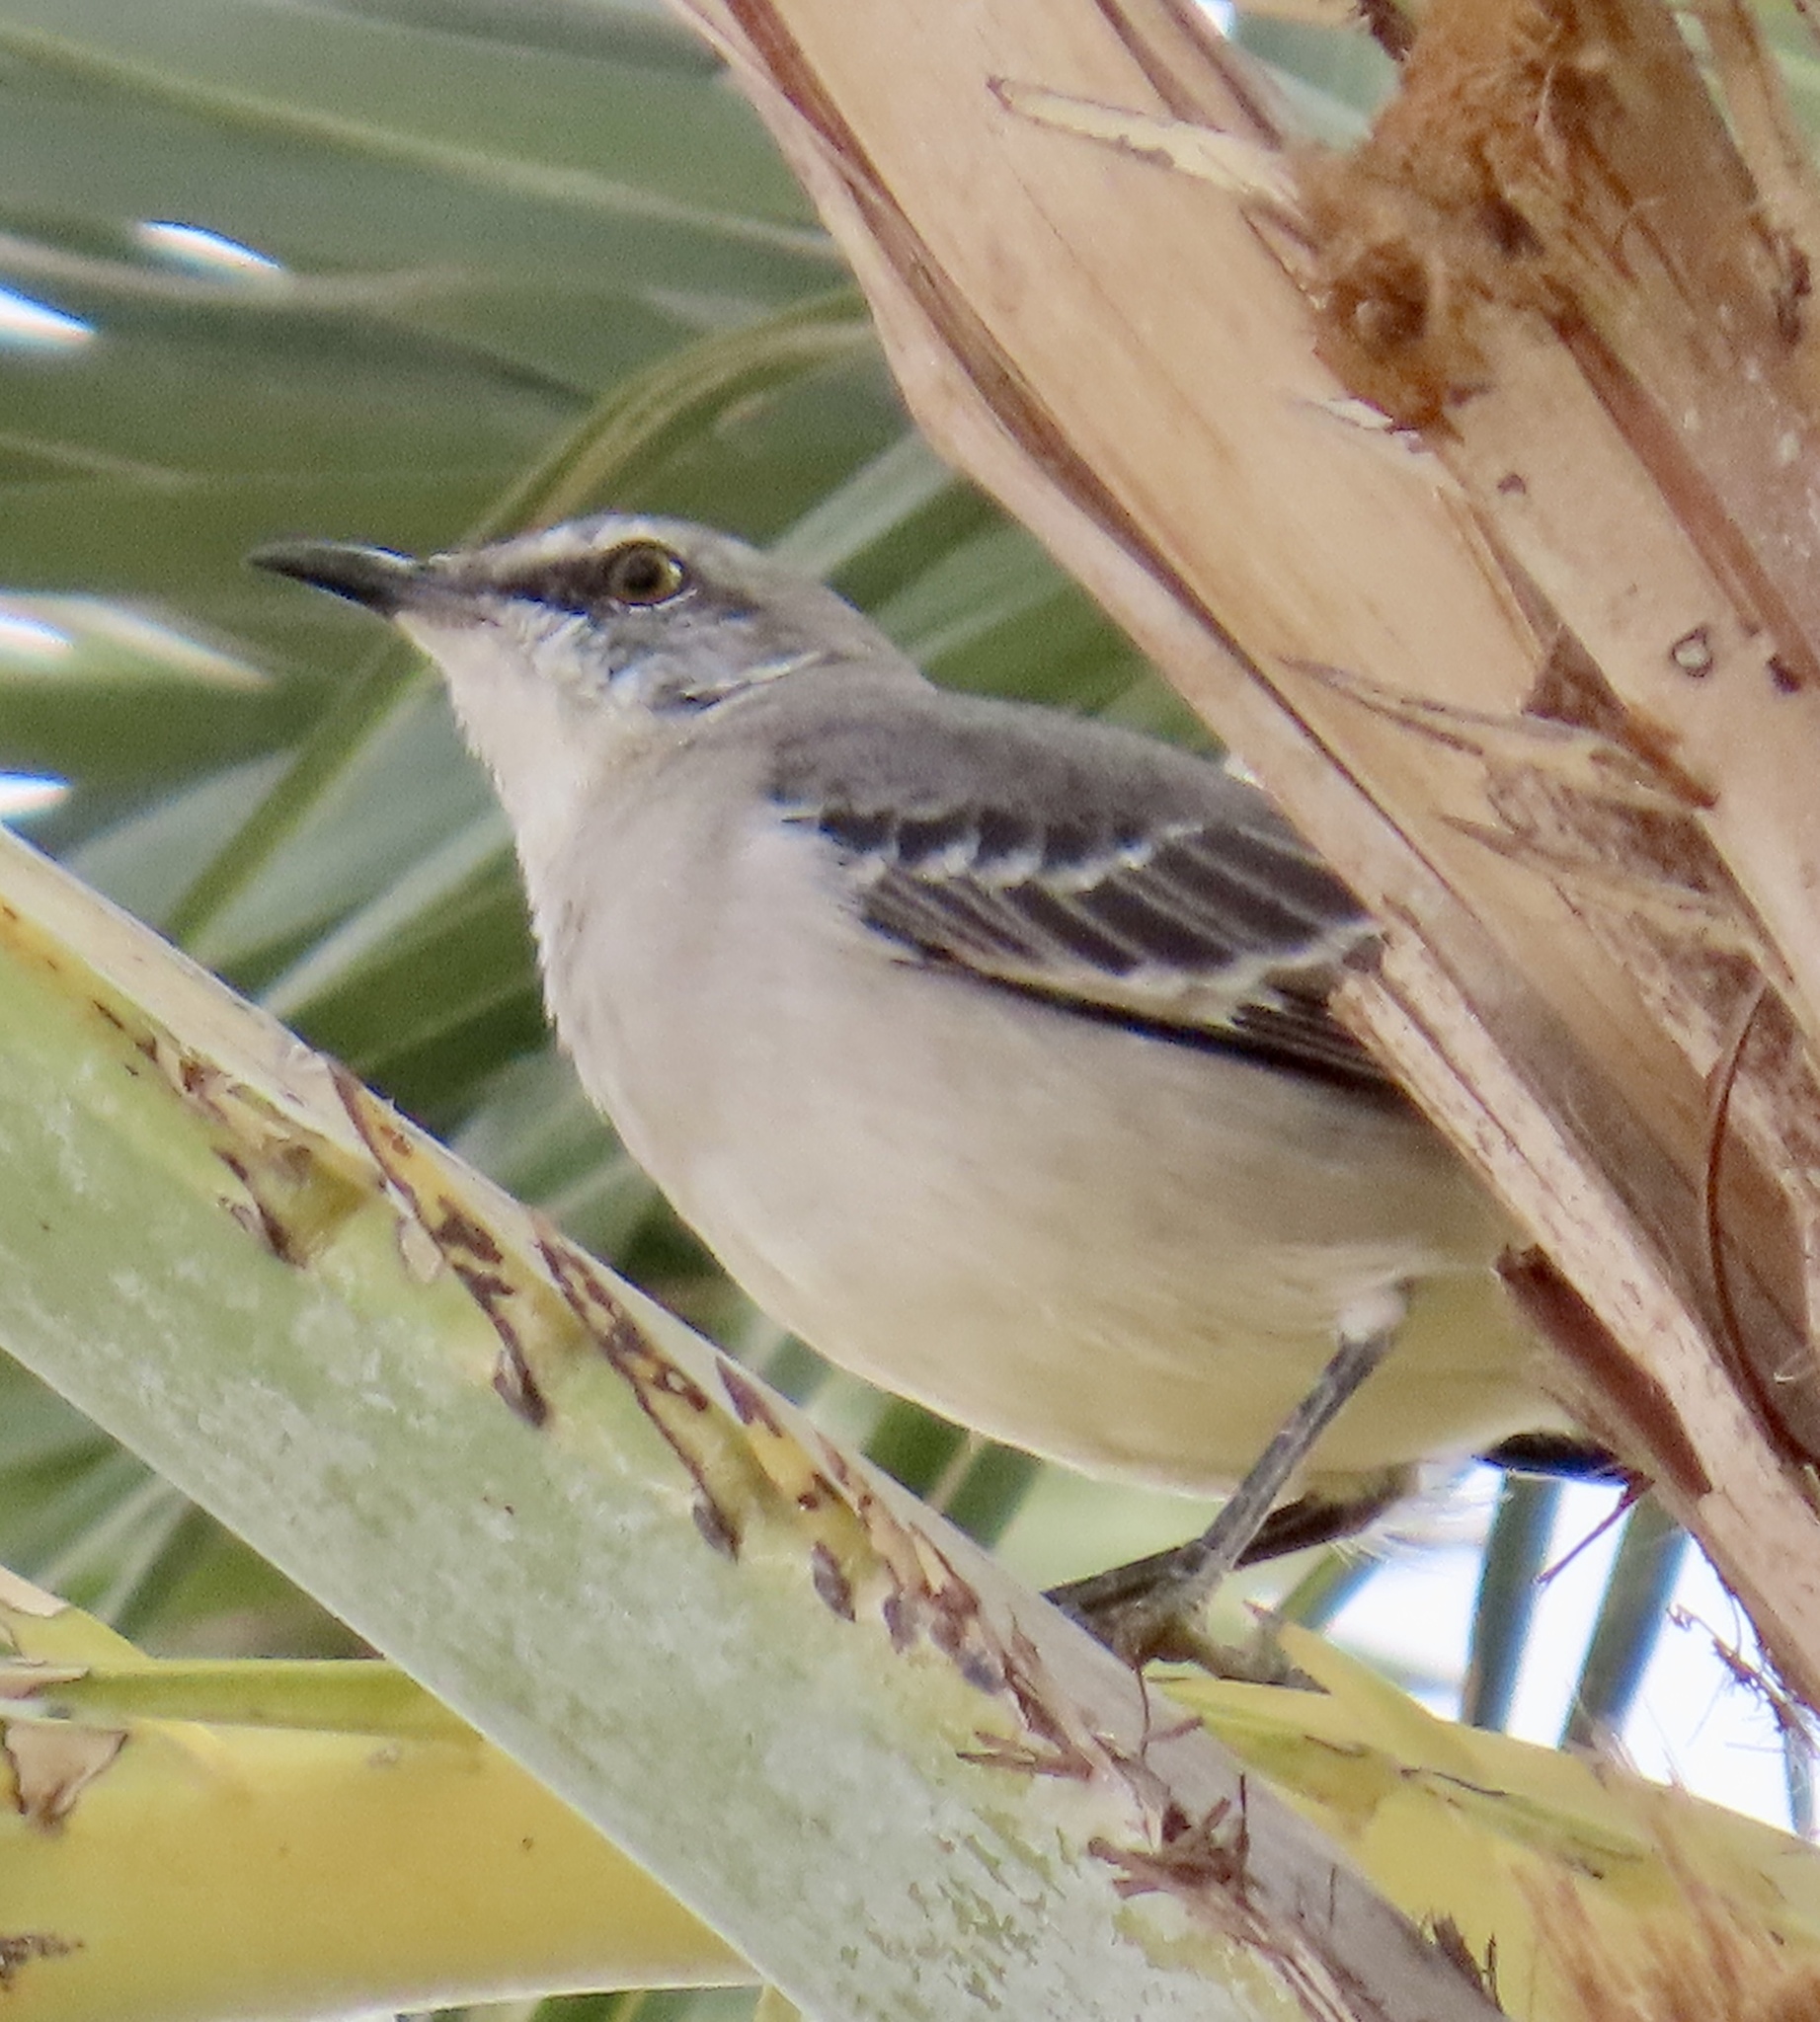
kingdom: Animalia
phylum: Chordata
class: Aves
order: Passeriformes
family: Mimidae
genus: Mimus
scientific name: Mimus polyglottos
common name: Northern mockingbird
